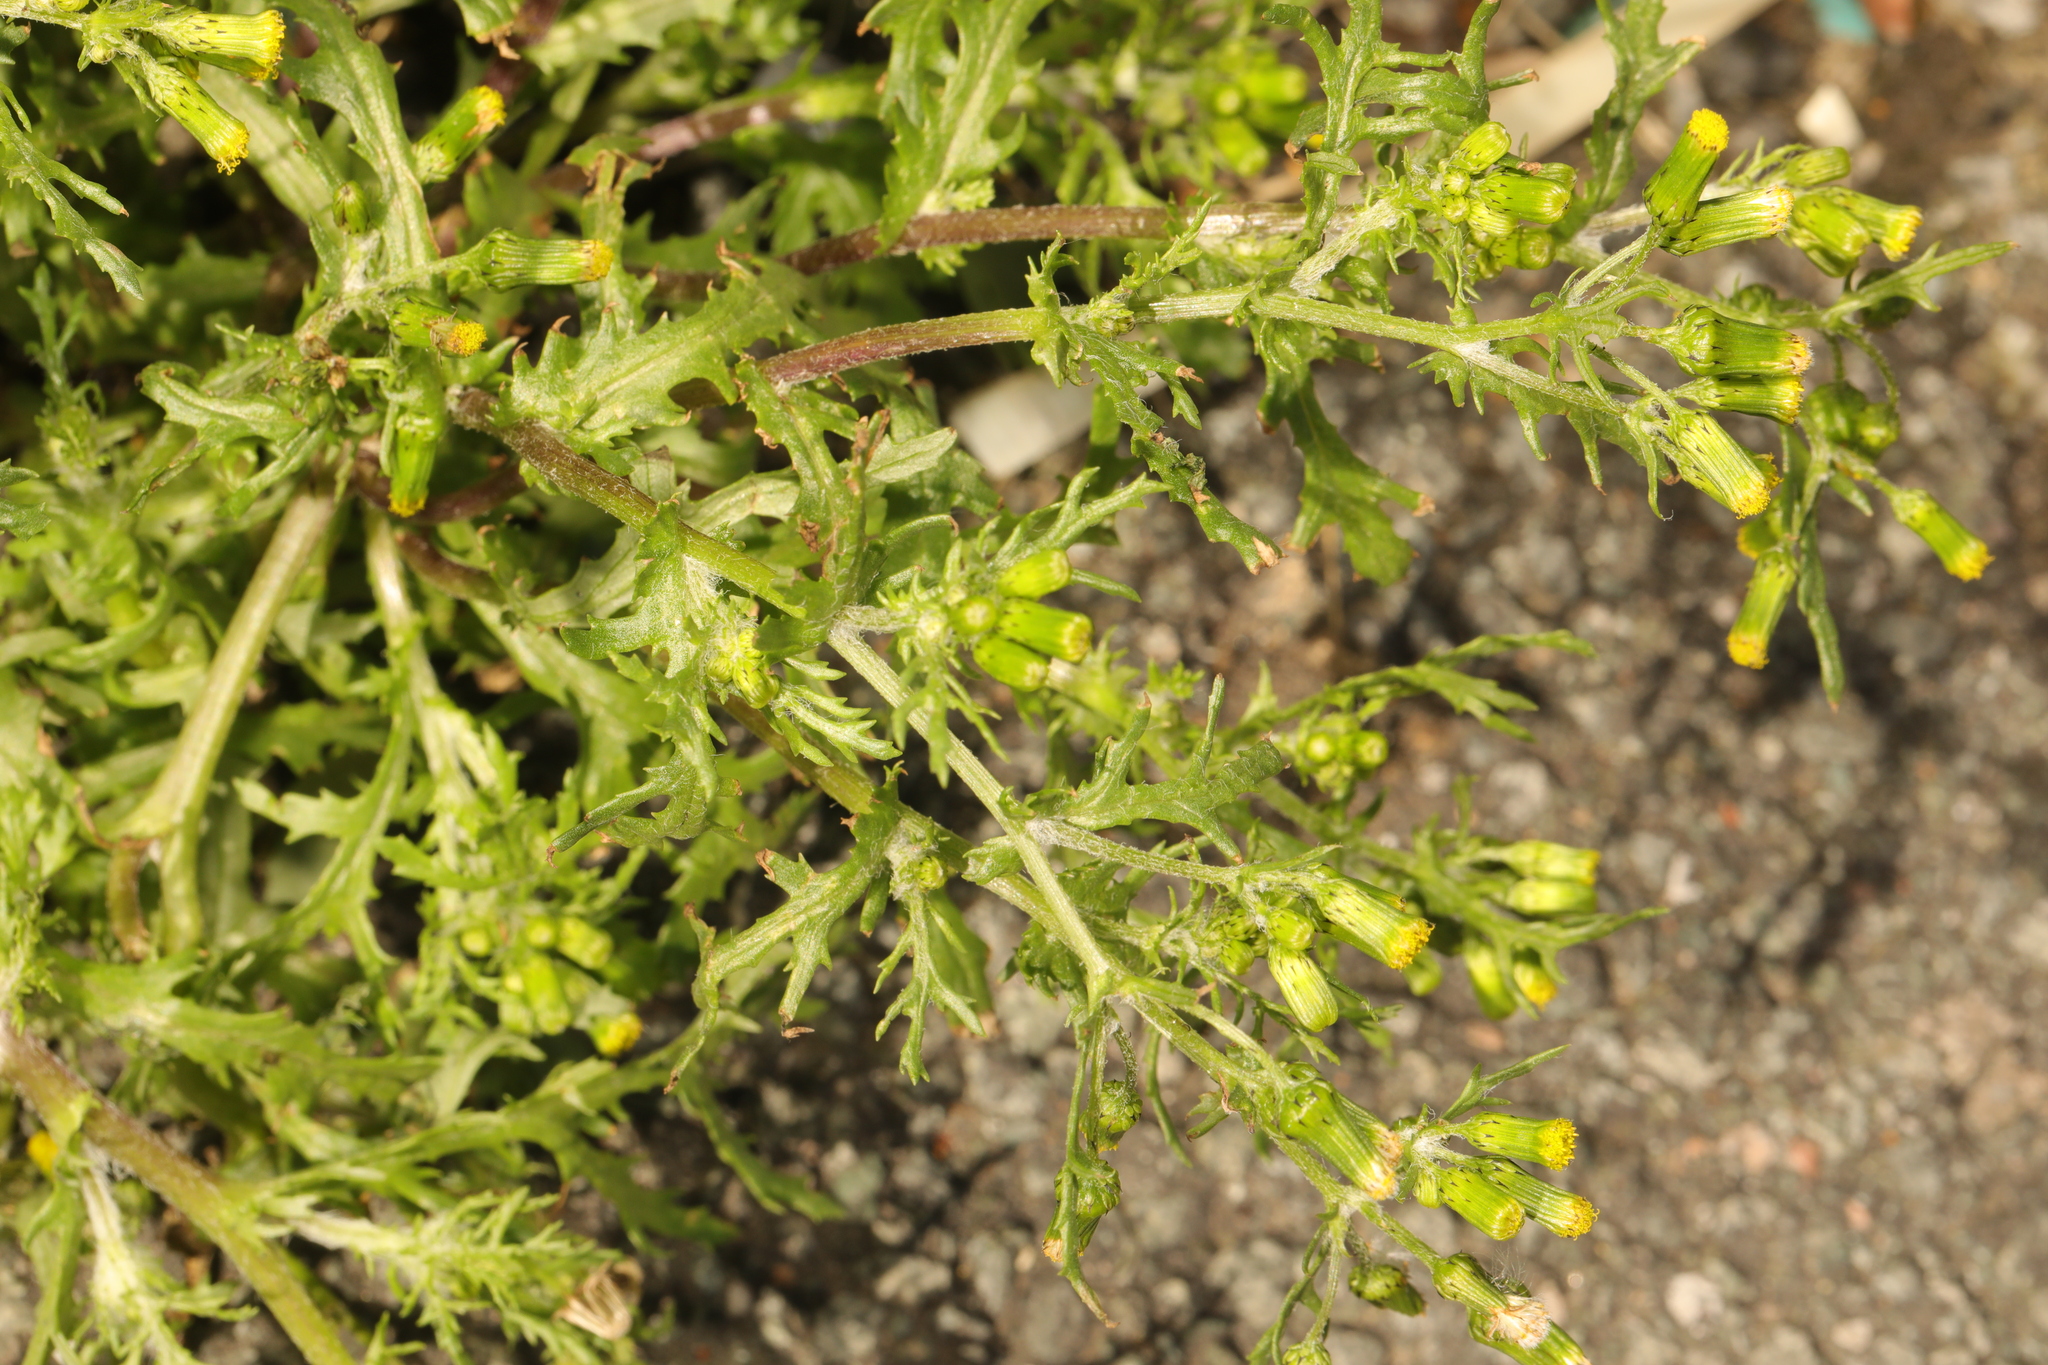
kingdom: Plantae
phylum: Tracheophyta
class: Magnoliopsida
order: Asterales
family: Asteraceae
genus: Senecio
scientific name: Senecio vulgaris
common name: Old-man-in-the-spring
